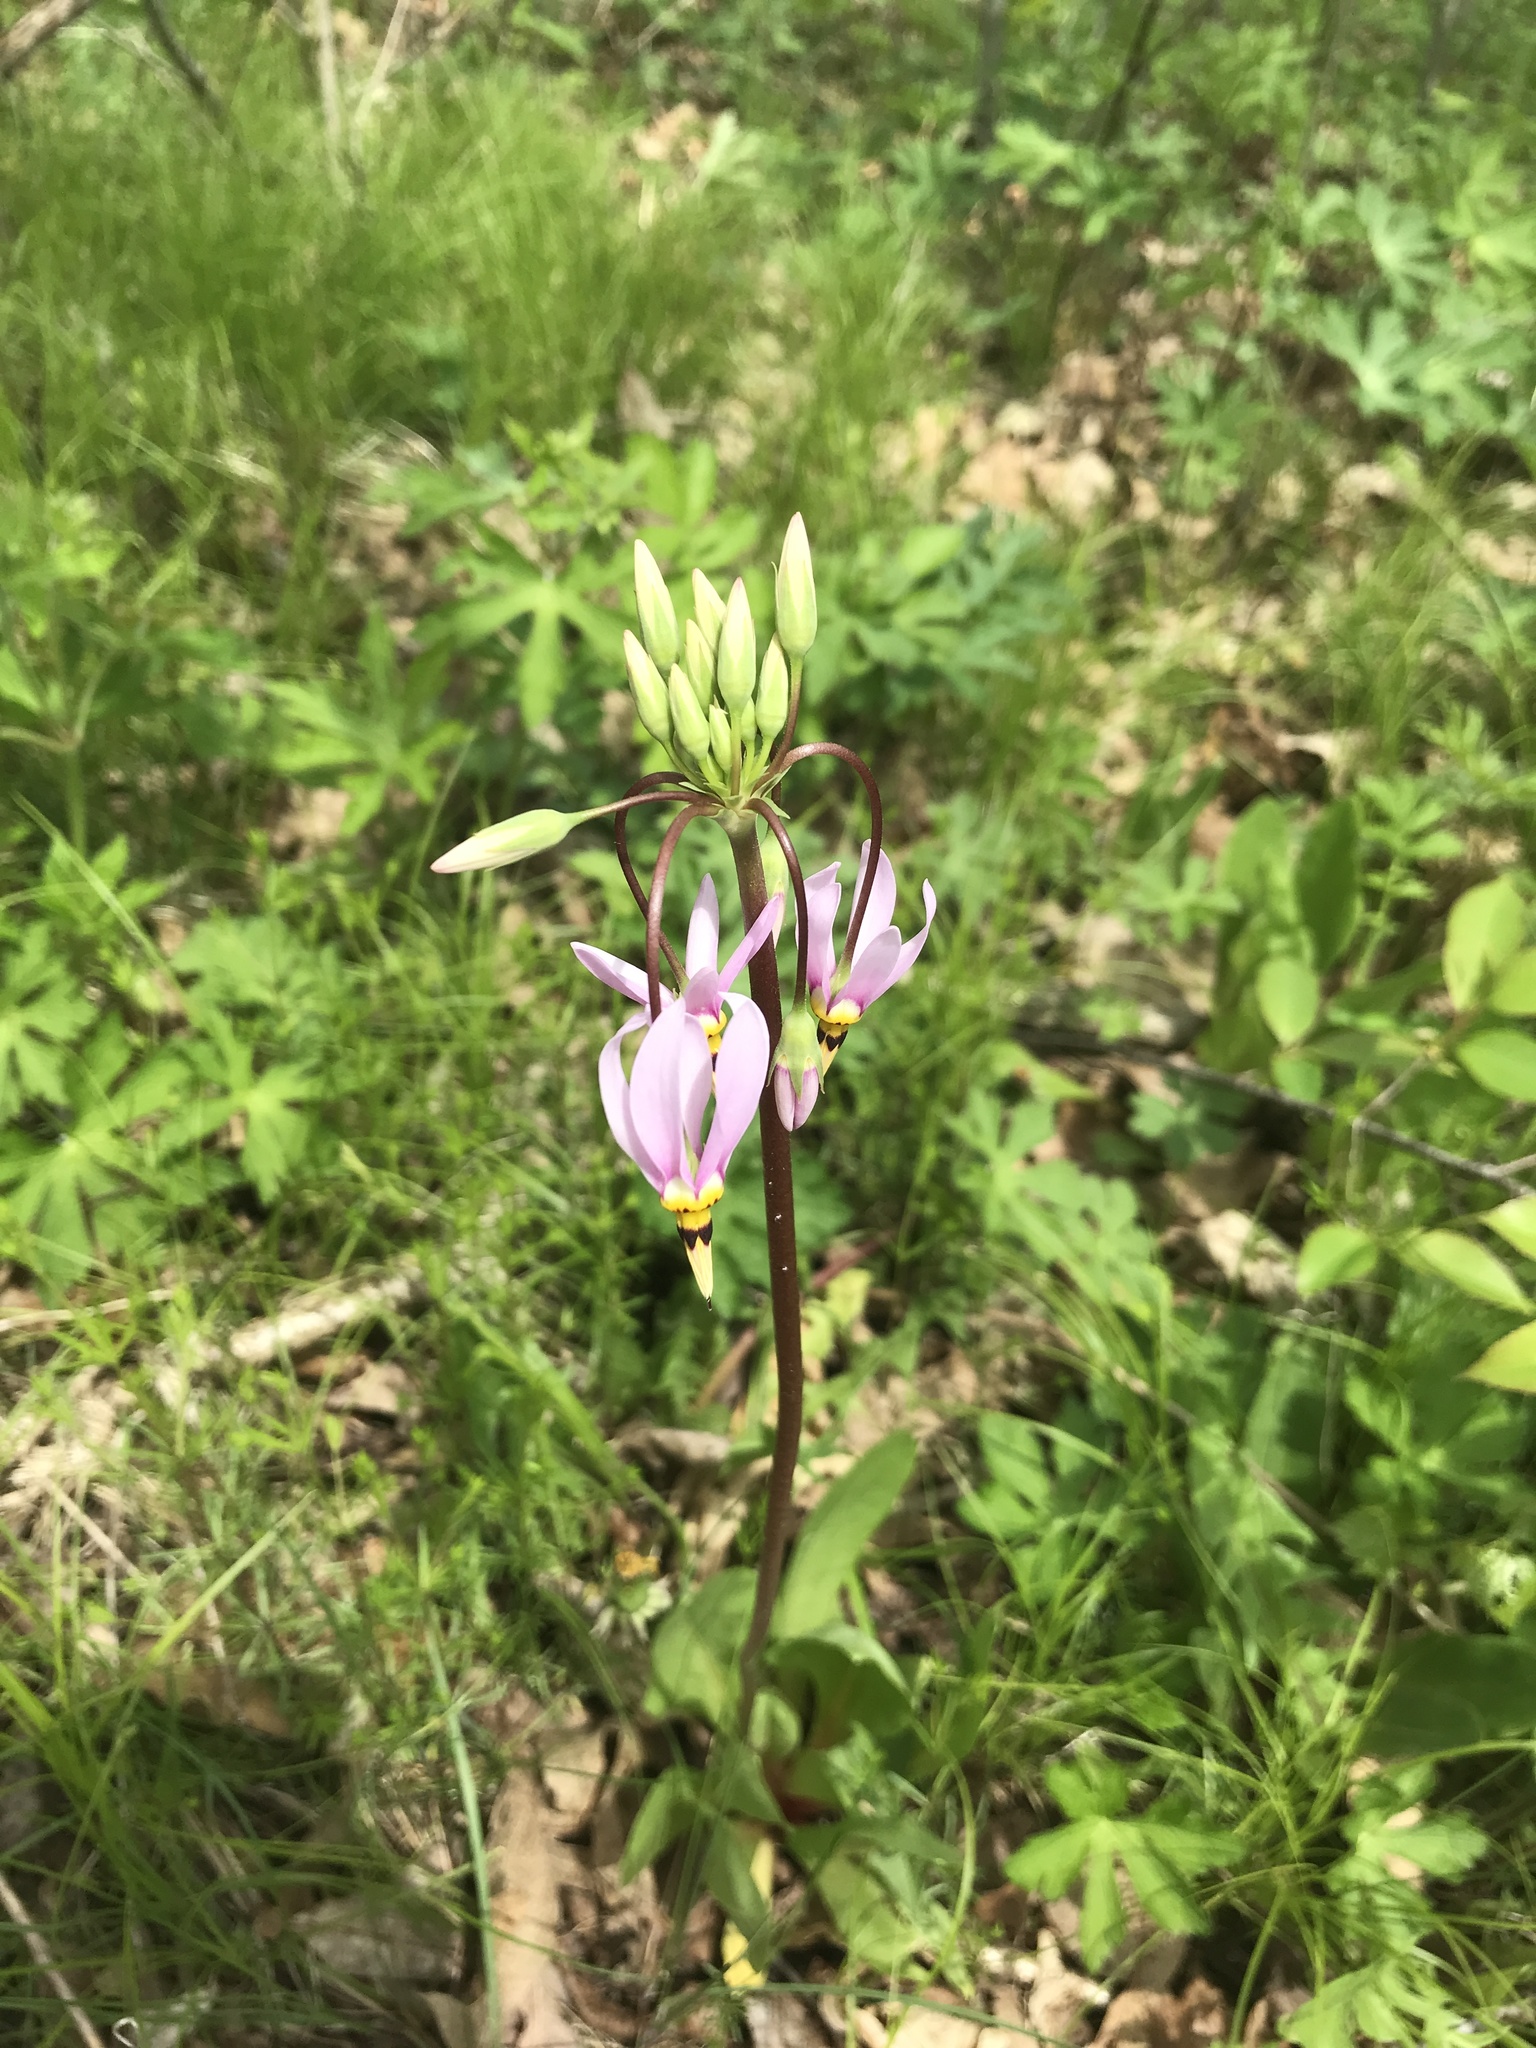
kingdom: Plantae
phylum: Tracheophyta
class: Magnoliopsida
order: Ericales
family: Primulaceae
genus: Dodecatheon
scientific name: Dodecatheon meadia
